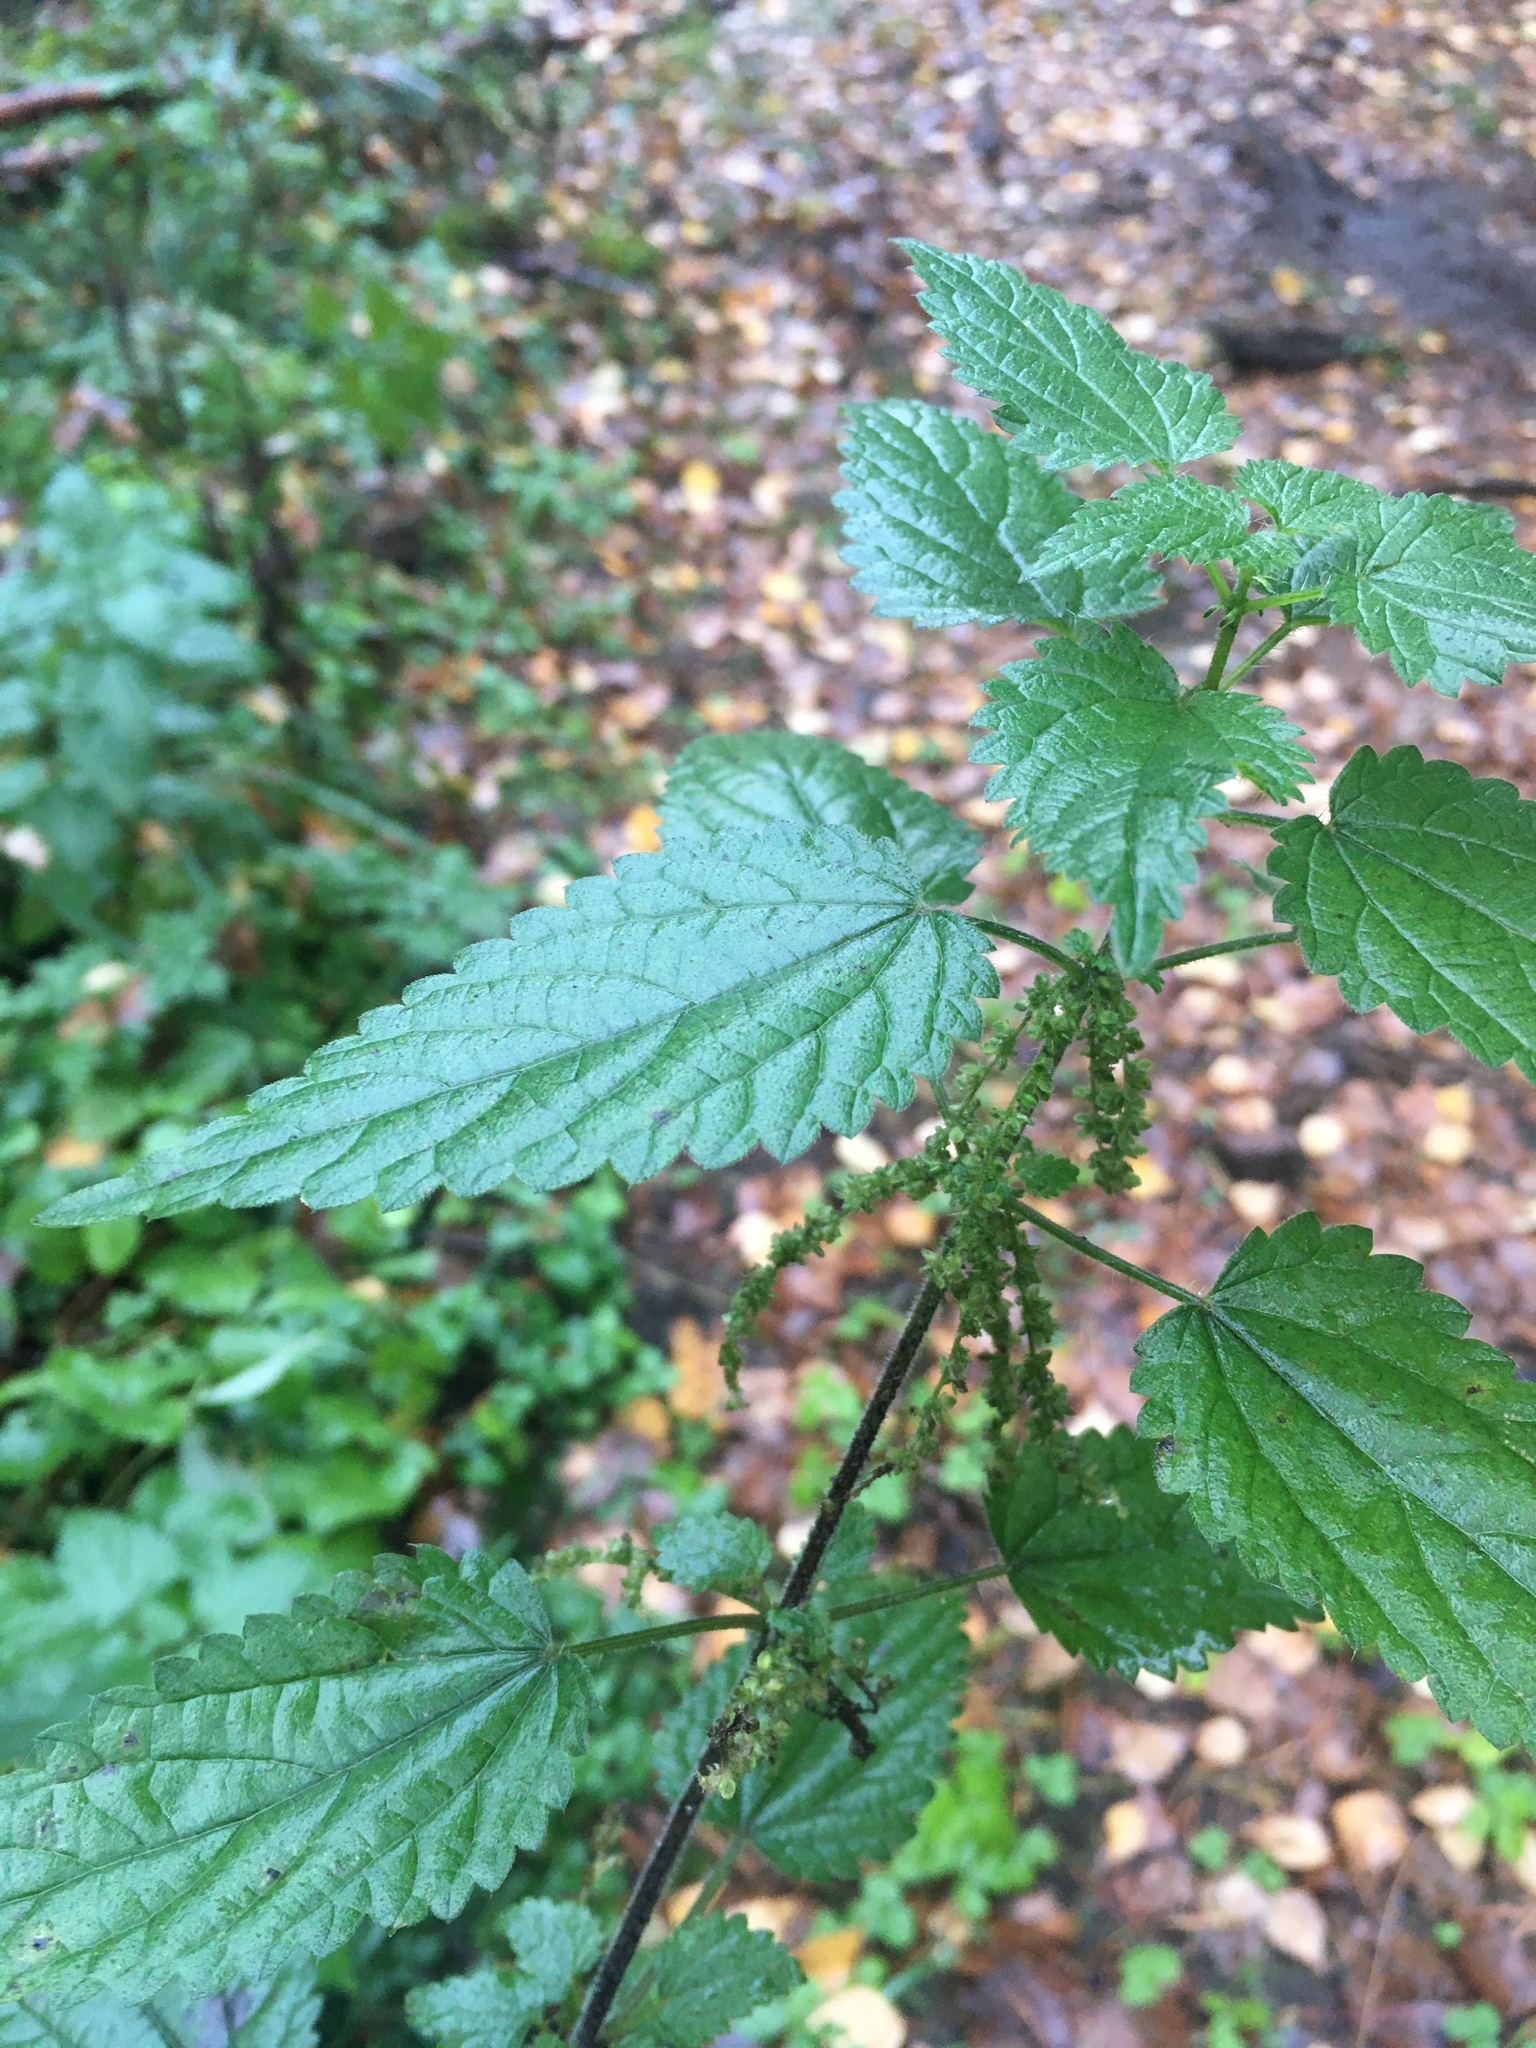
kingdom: Plantae
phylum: Tracheophyta
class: Magnoliopsida
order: Rosales
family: Urticaceae
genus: Urtica
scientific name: Urtica dioica
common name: Common nettle
